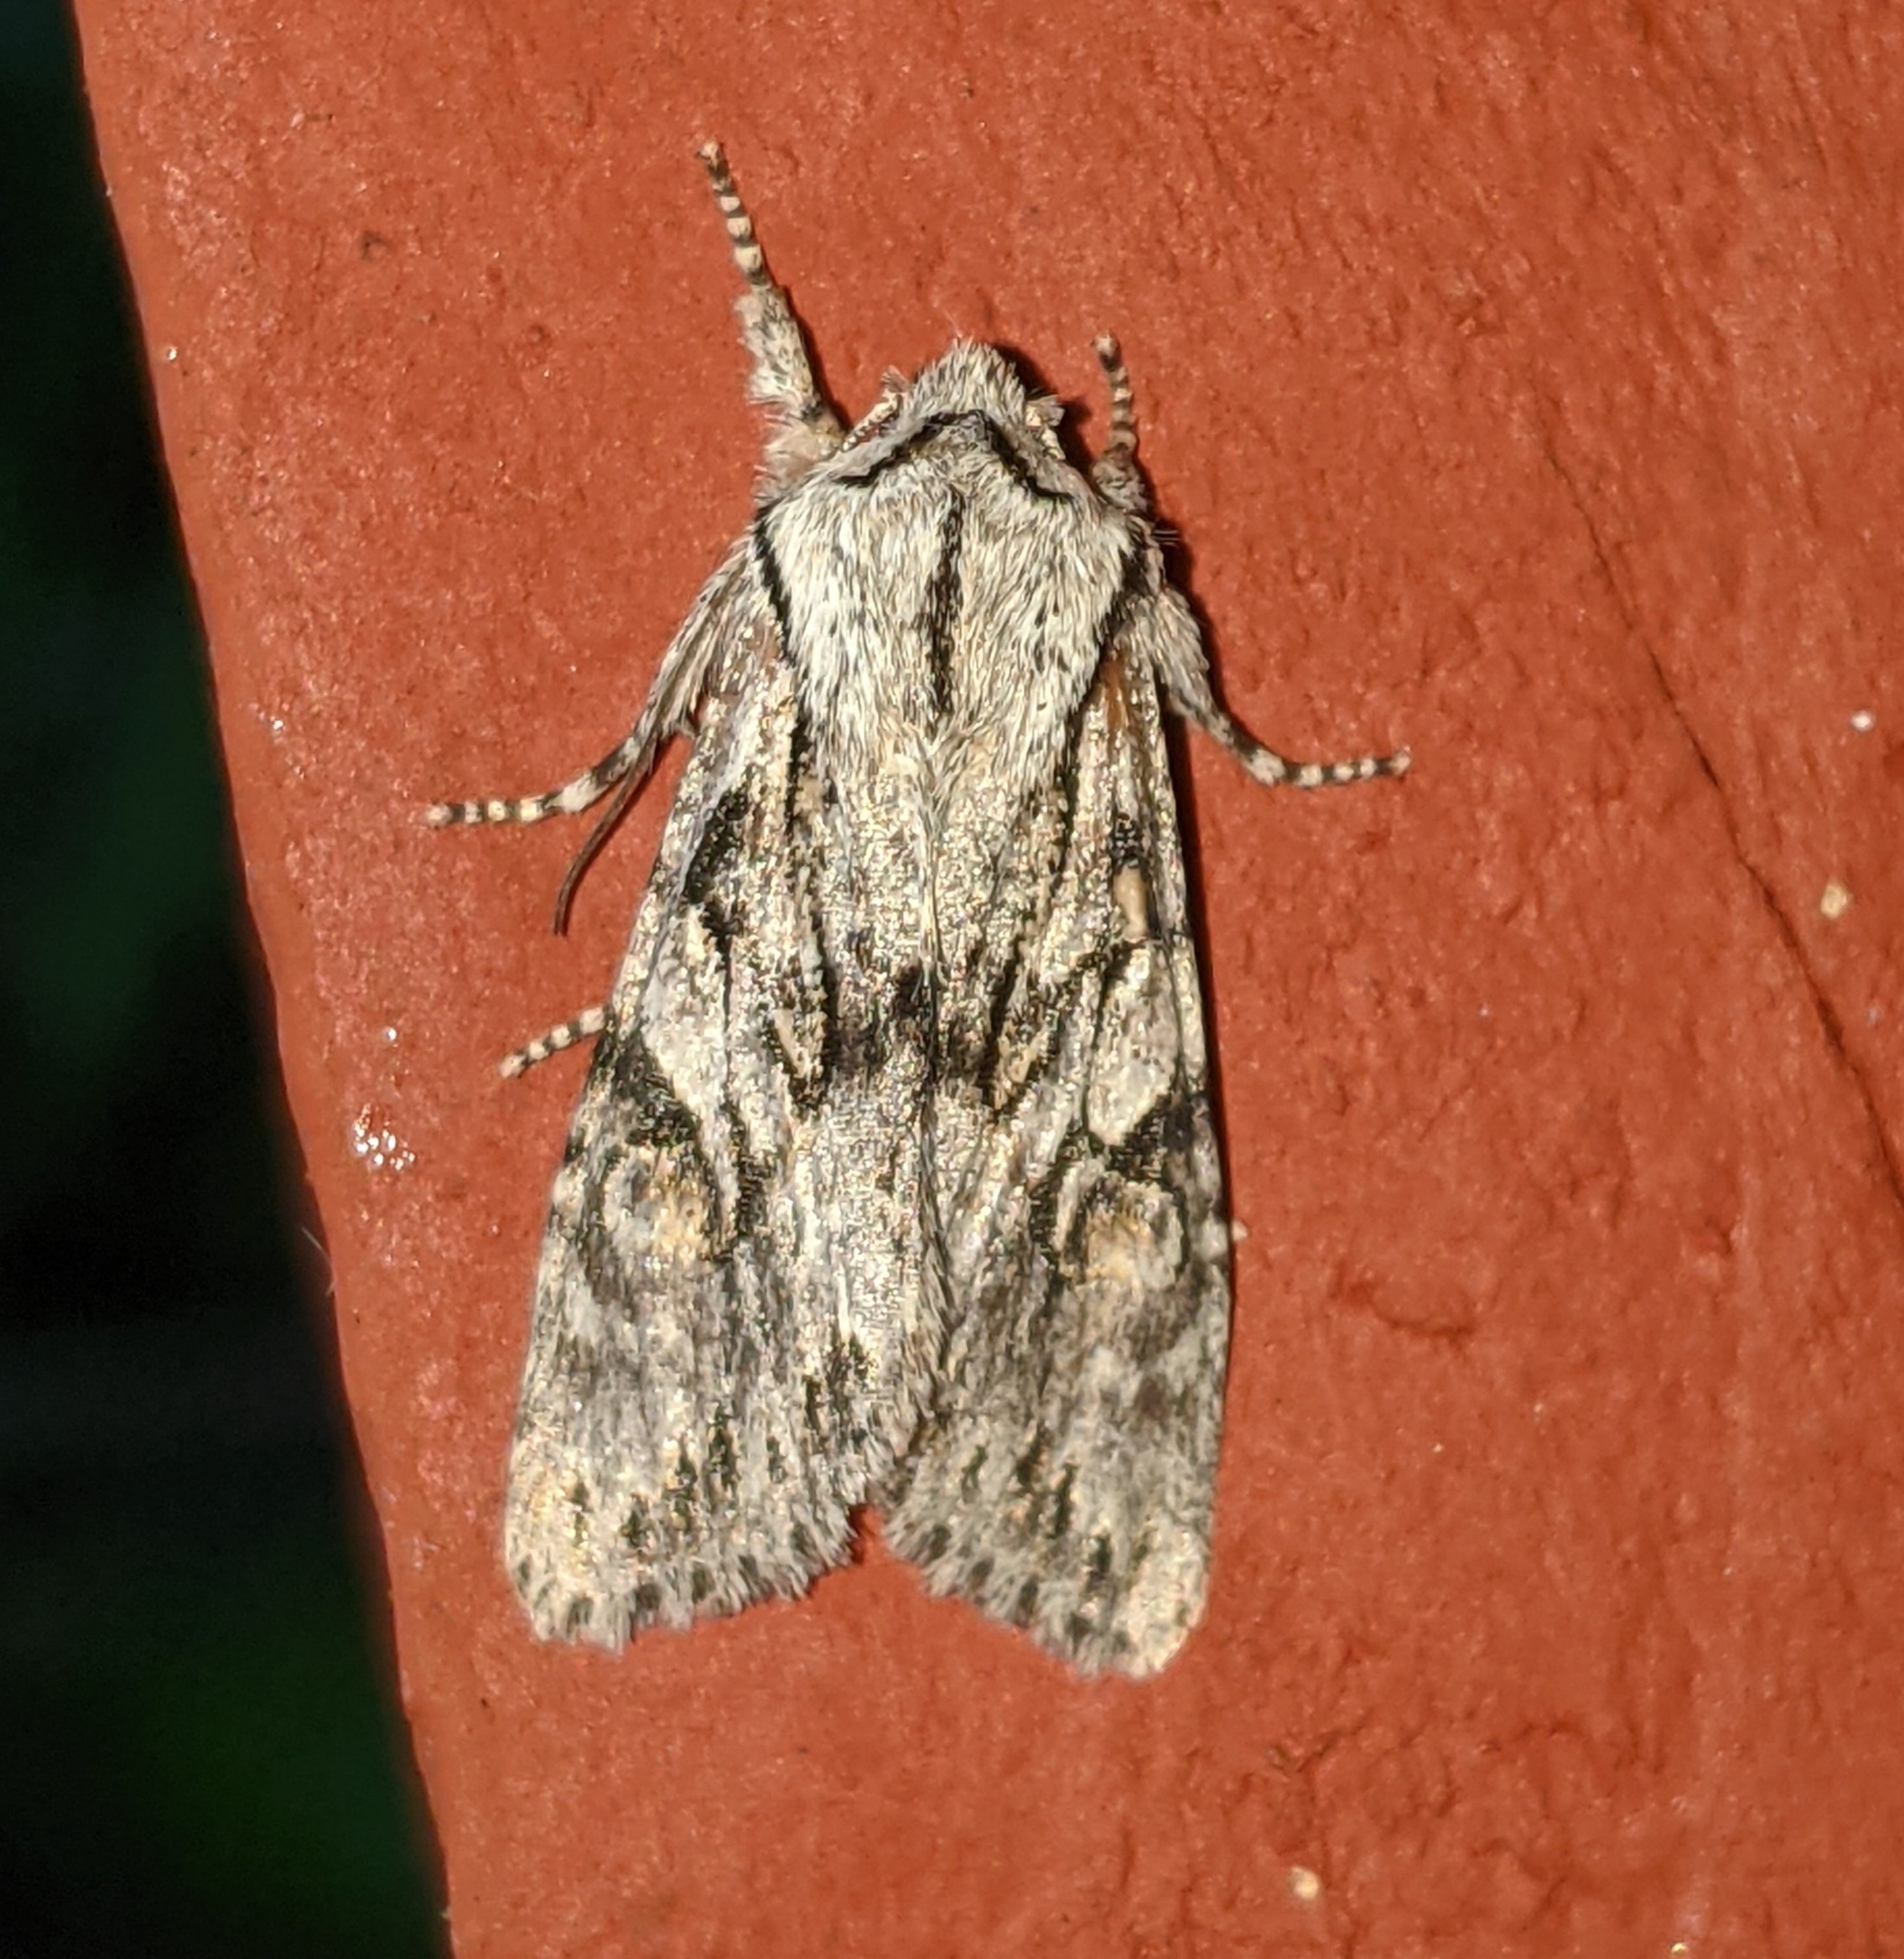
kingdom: Animalia
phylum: Arthropoda
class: Insecta
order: Lepidoptera
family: Noctuidae
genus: Egira
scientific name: Egira simplex
